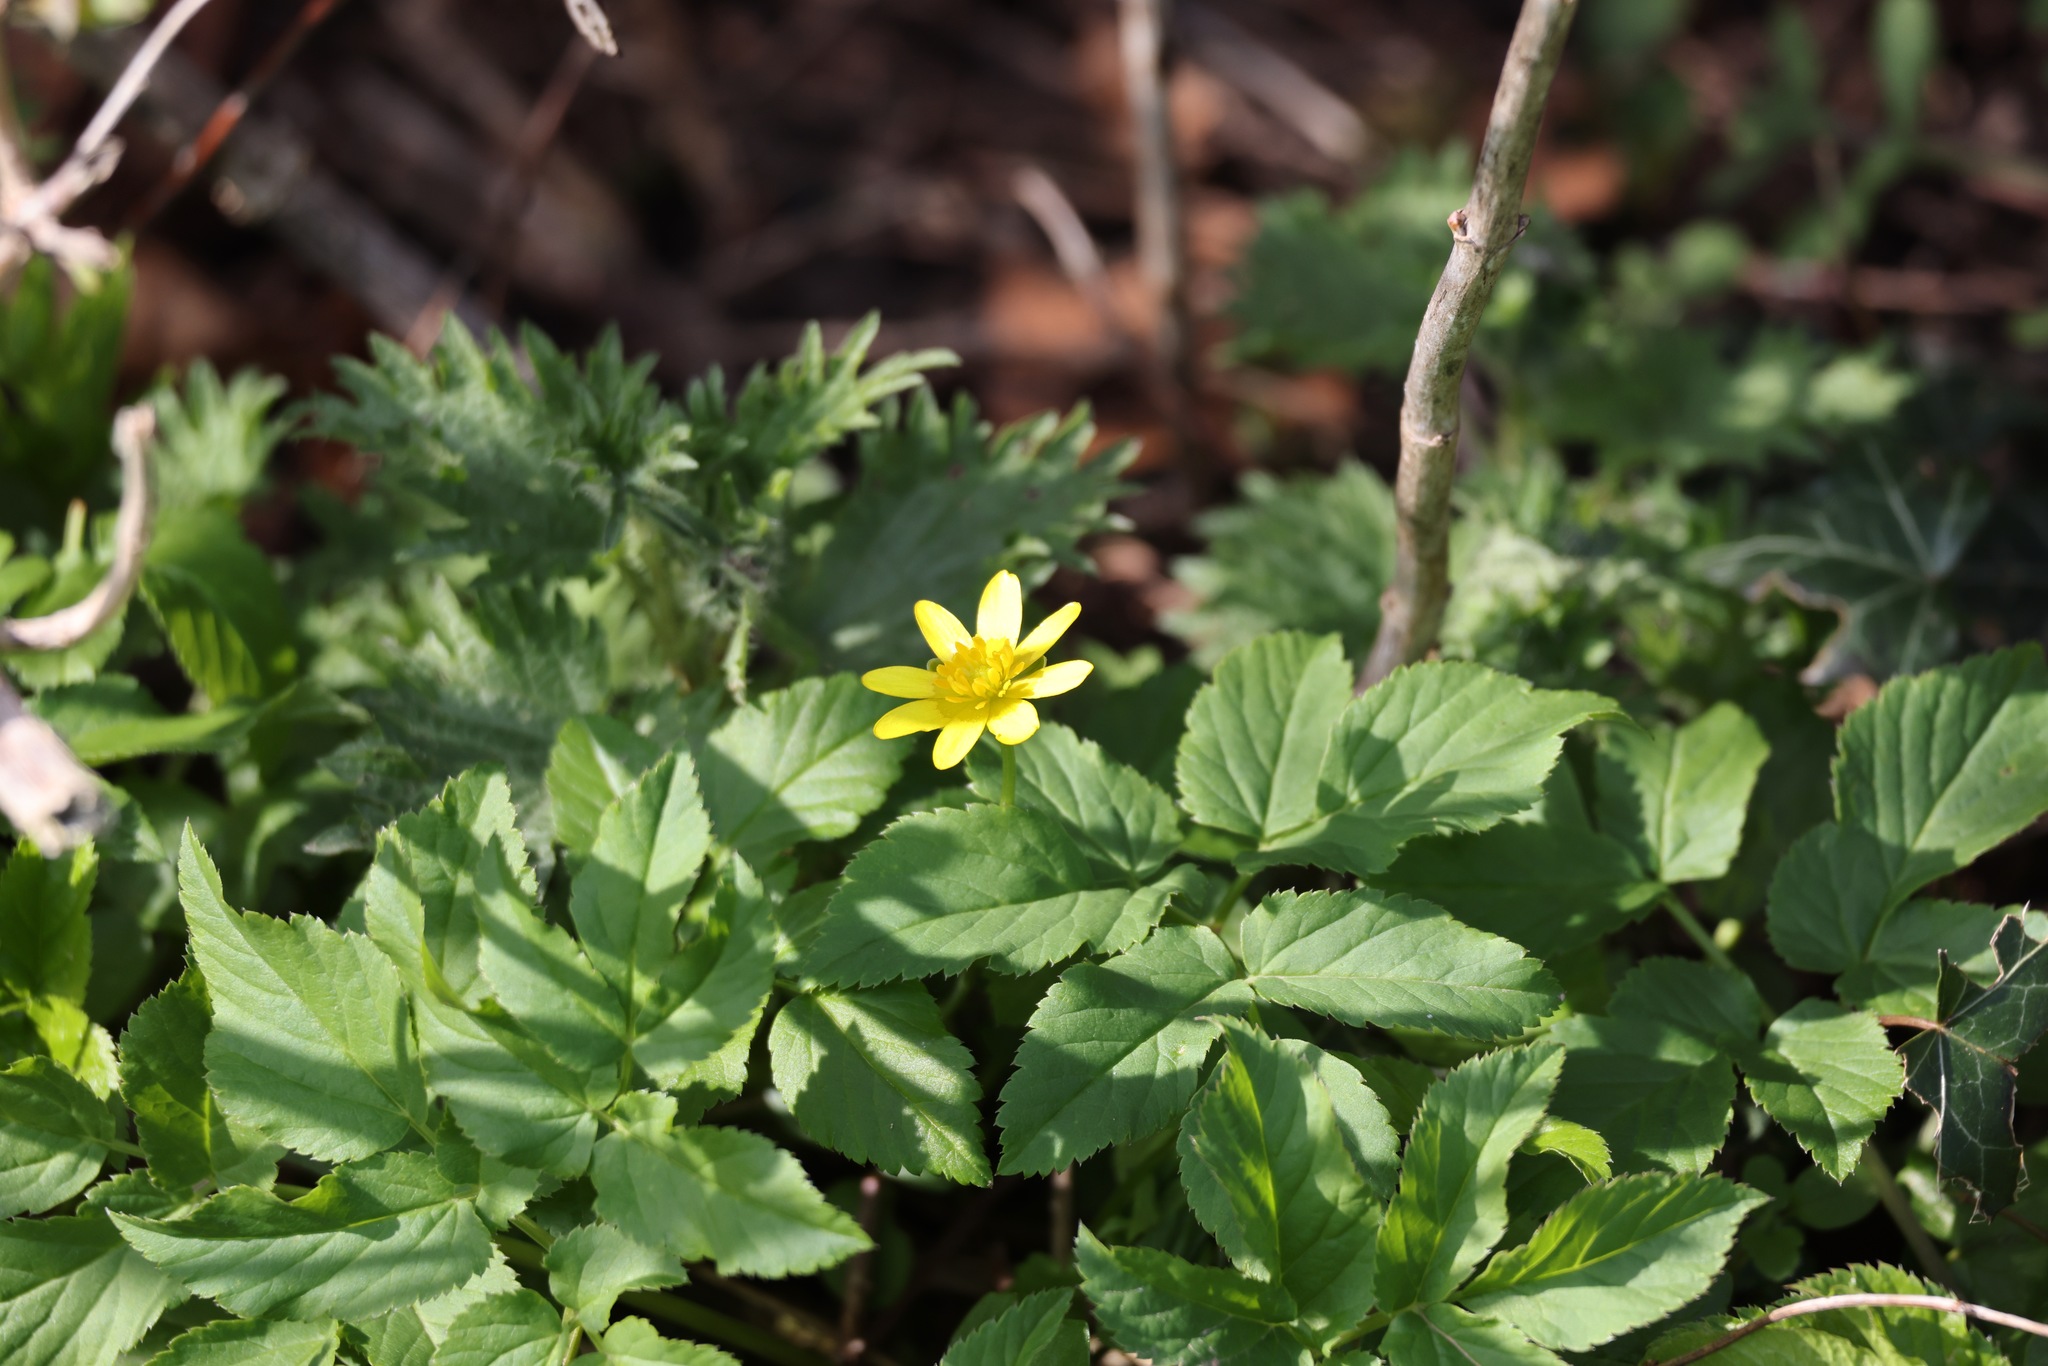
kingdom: Plantae
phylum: Tracheophyta
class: Magnoliopsida
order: Ranunculales
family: Ranunculaceae
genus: Ficaria
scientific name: Ficaria verna
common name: Lesser celandine
